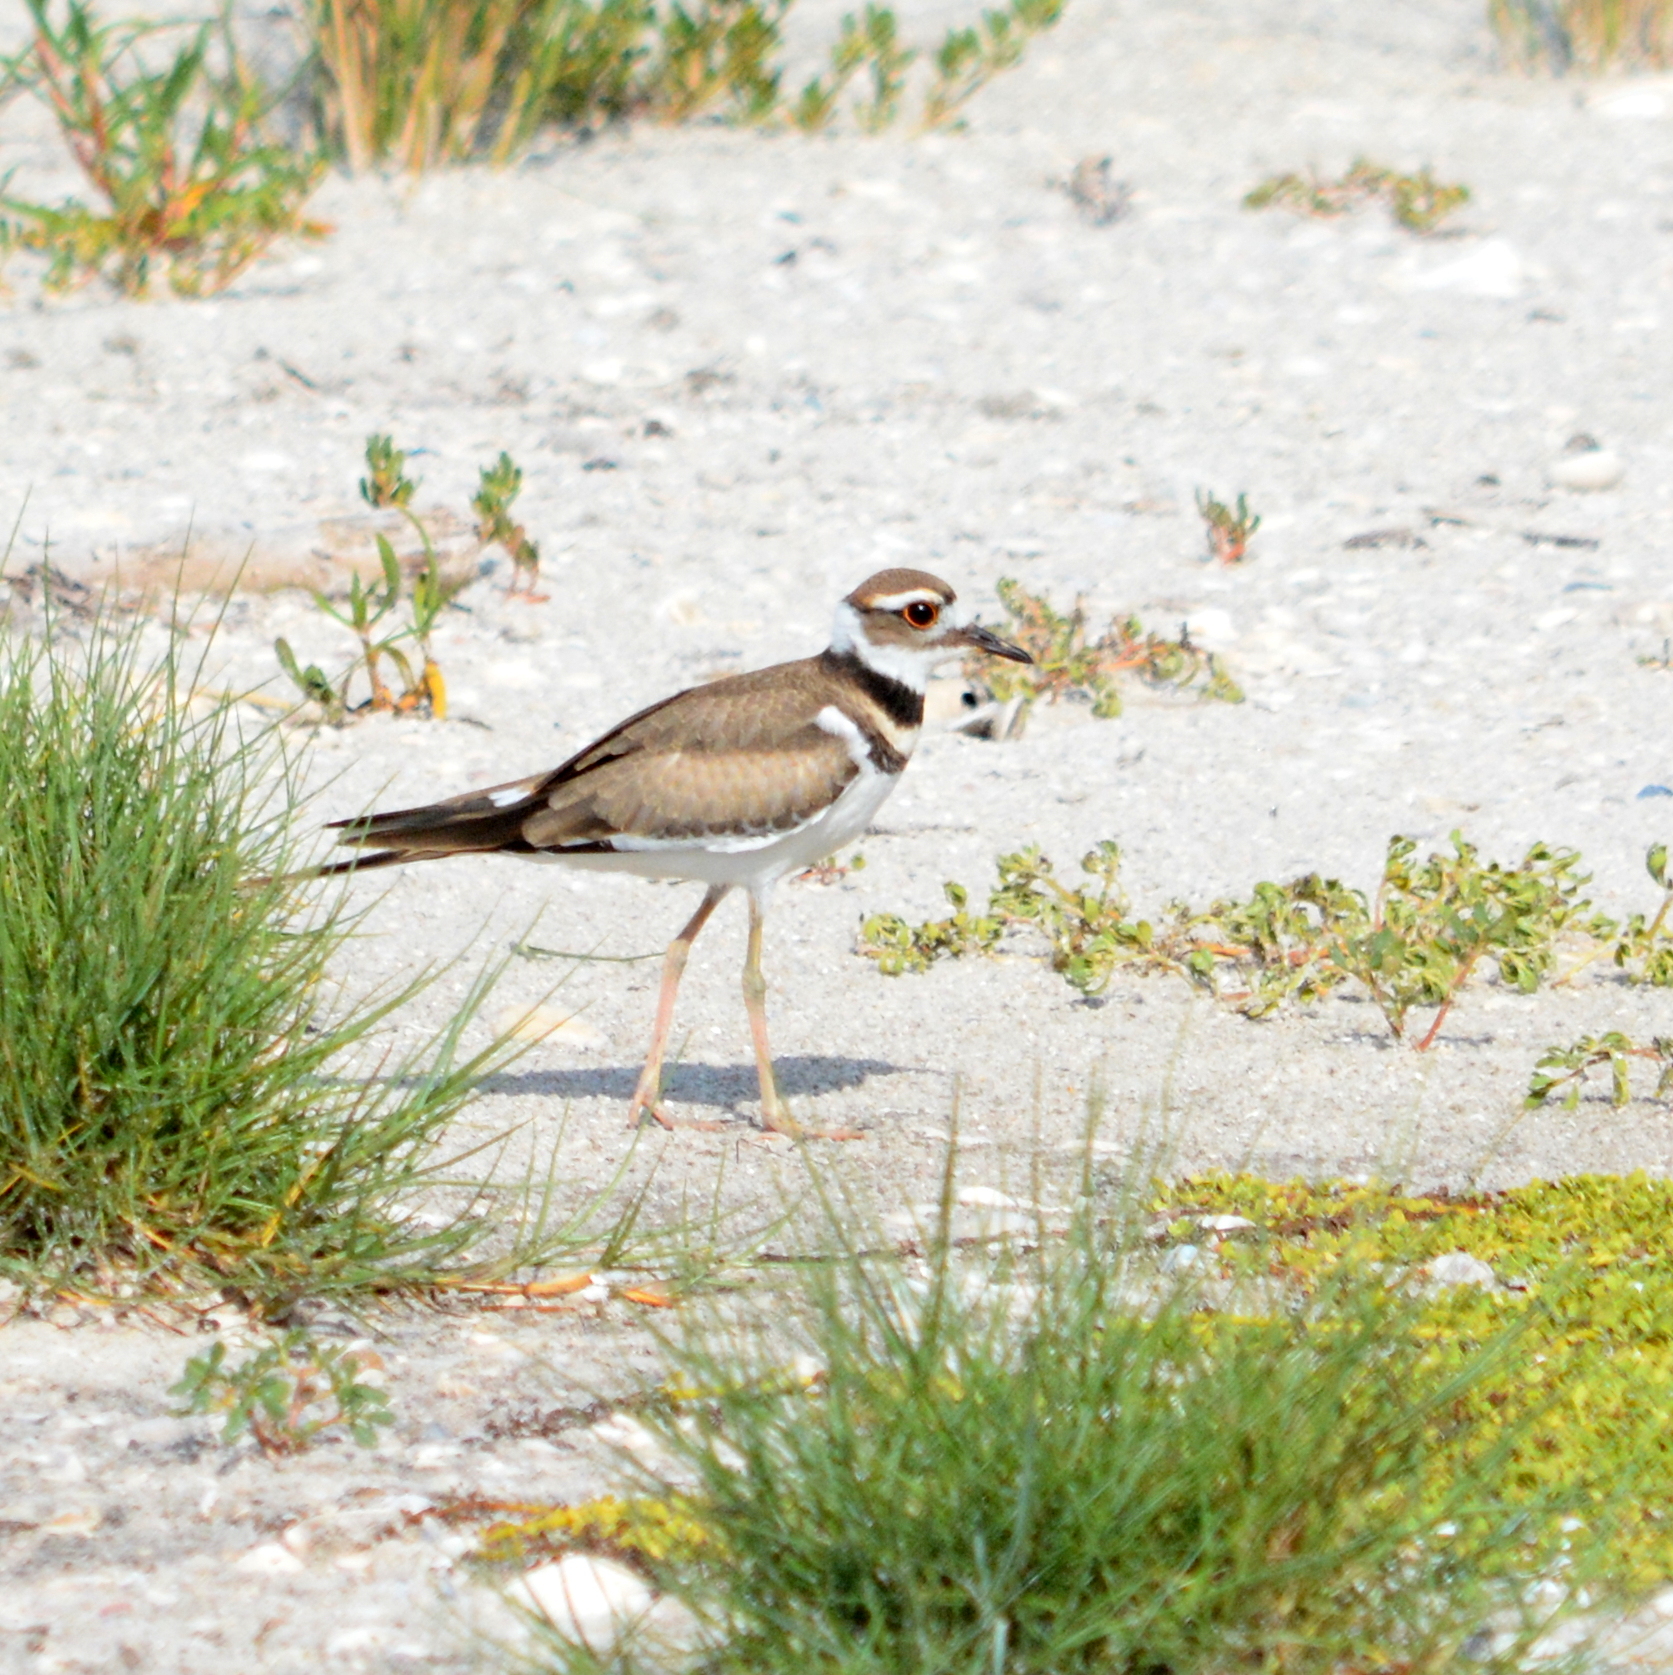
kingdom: Animalia
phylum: Chordata
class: Aves
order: Charadriiformes
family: Charadriidae
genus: Charadrius
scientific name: Charadrius vociferus
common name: Killdeer
